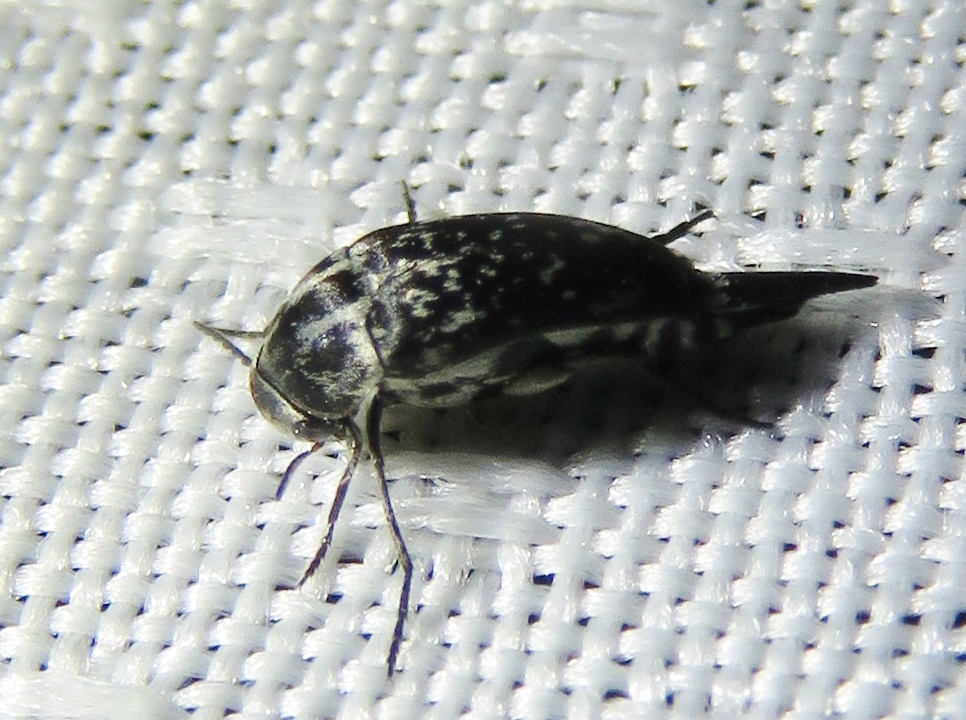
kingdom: Animalia
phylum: Arthropoda
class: Insecta
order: Coleoptera
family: Mordellidae
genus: Mordella
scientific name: Mordella marginata
